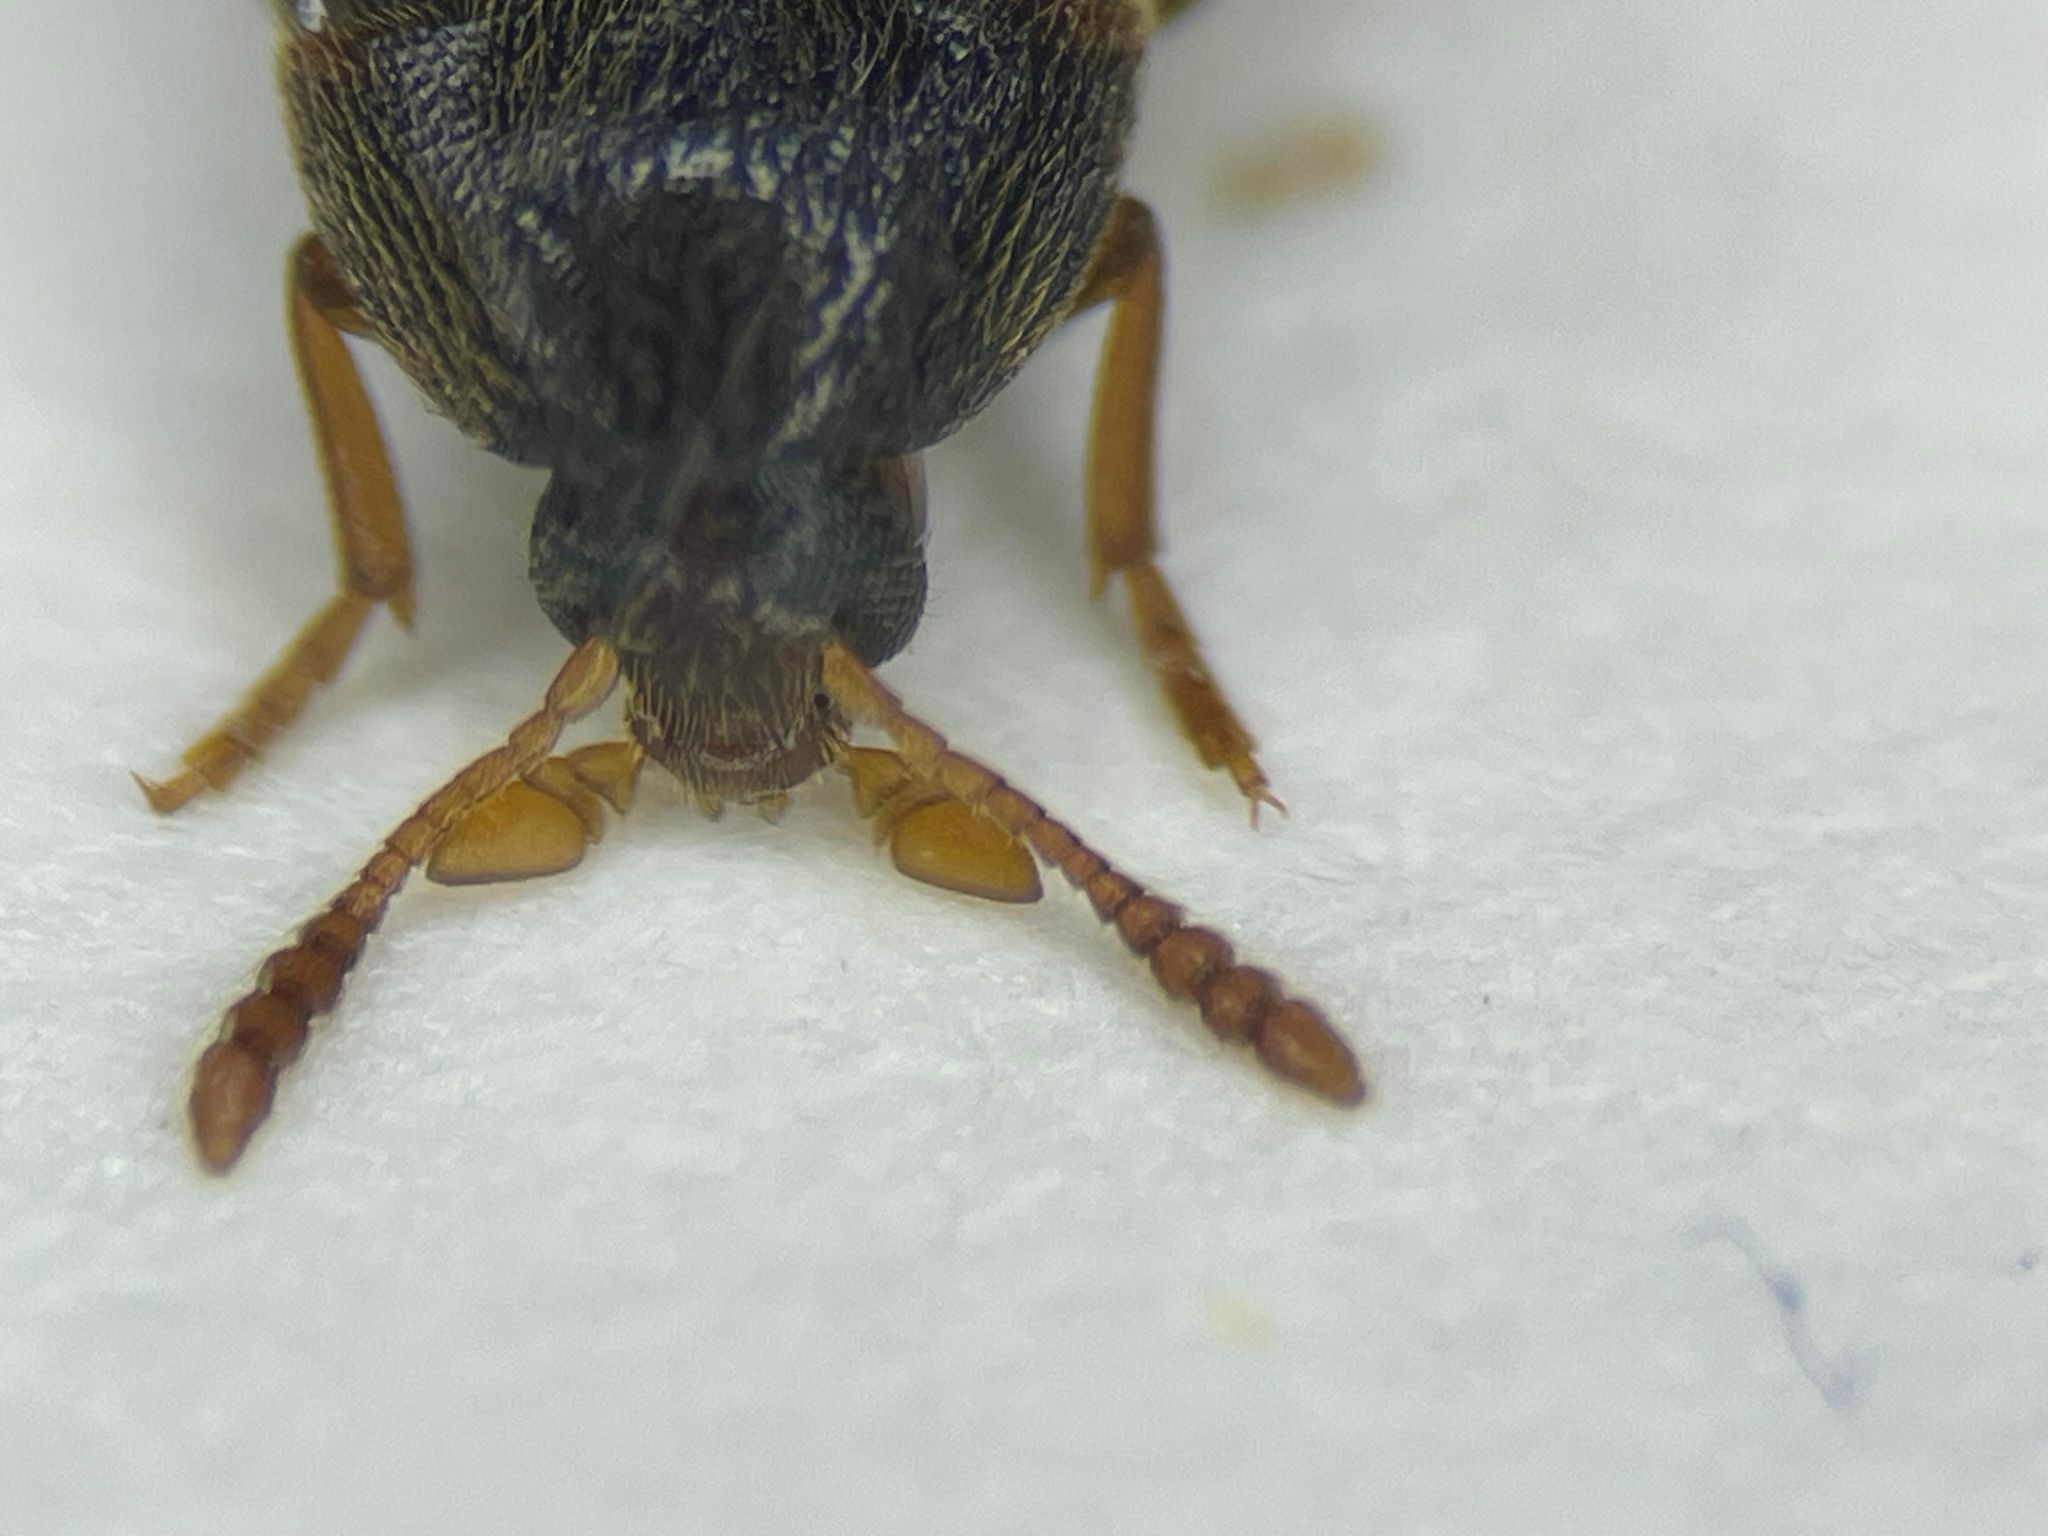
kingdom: Animalia
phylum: Arthropoda
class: Insecta
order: Coleoptera
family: Melandryidae
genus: Orchesia
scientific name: Orchesia cultriformis
